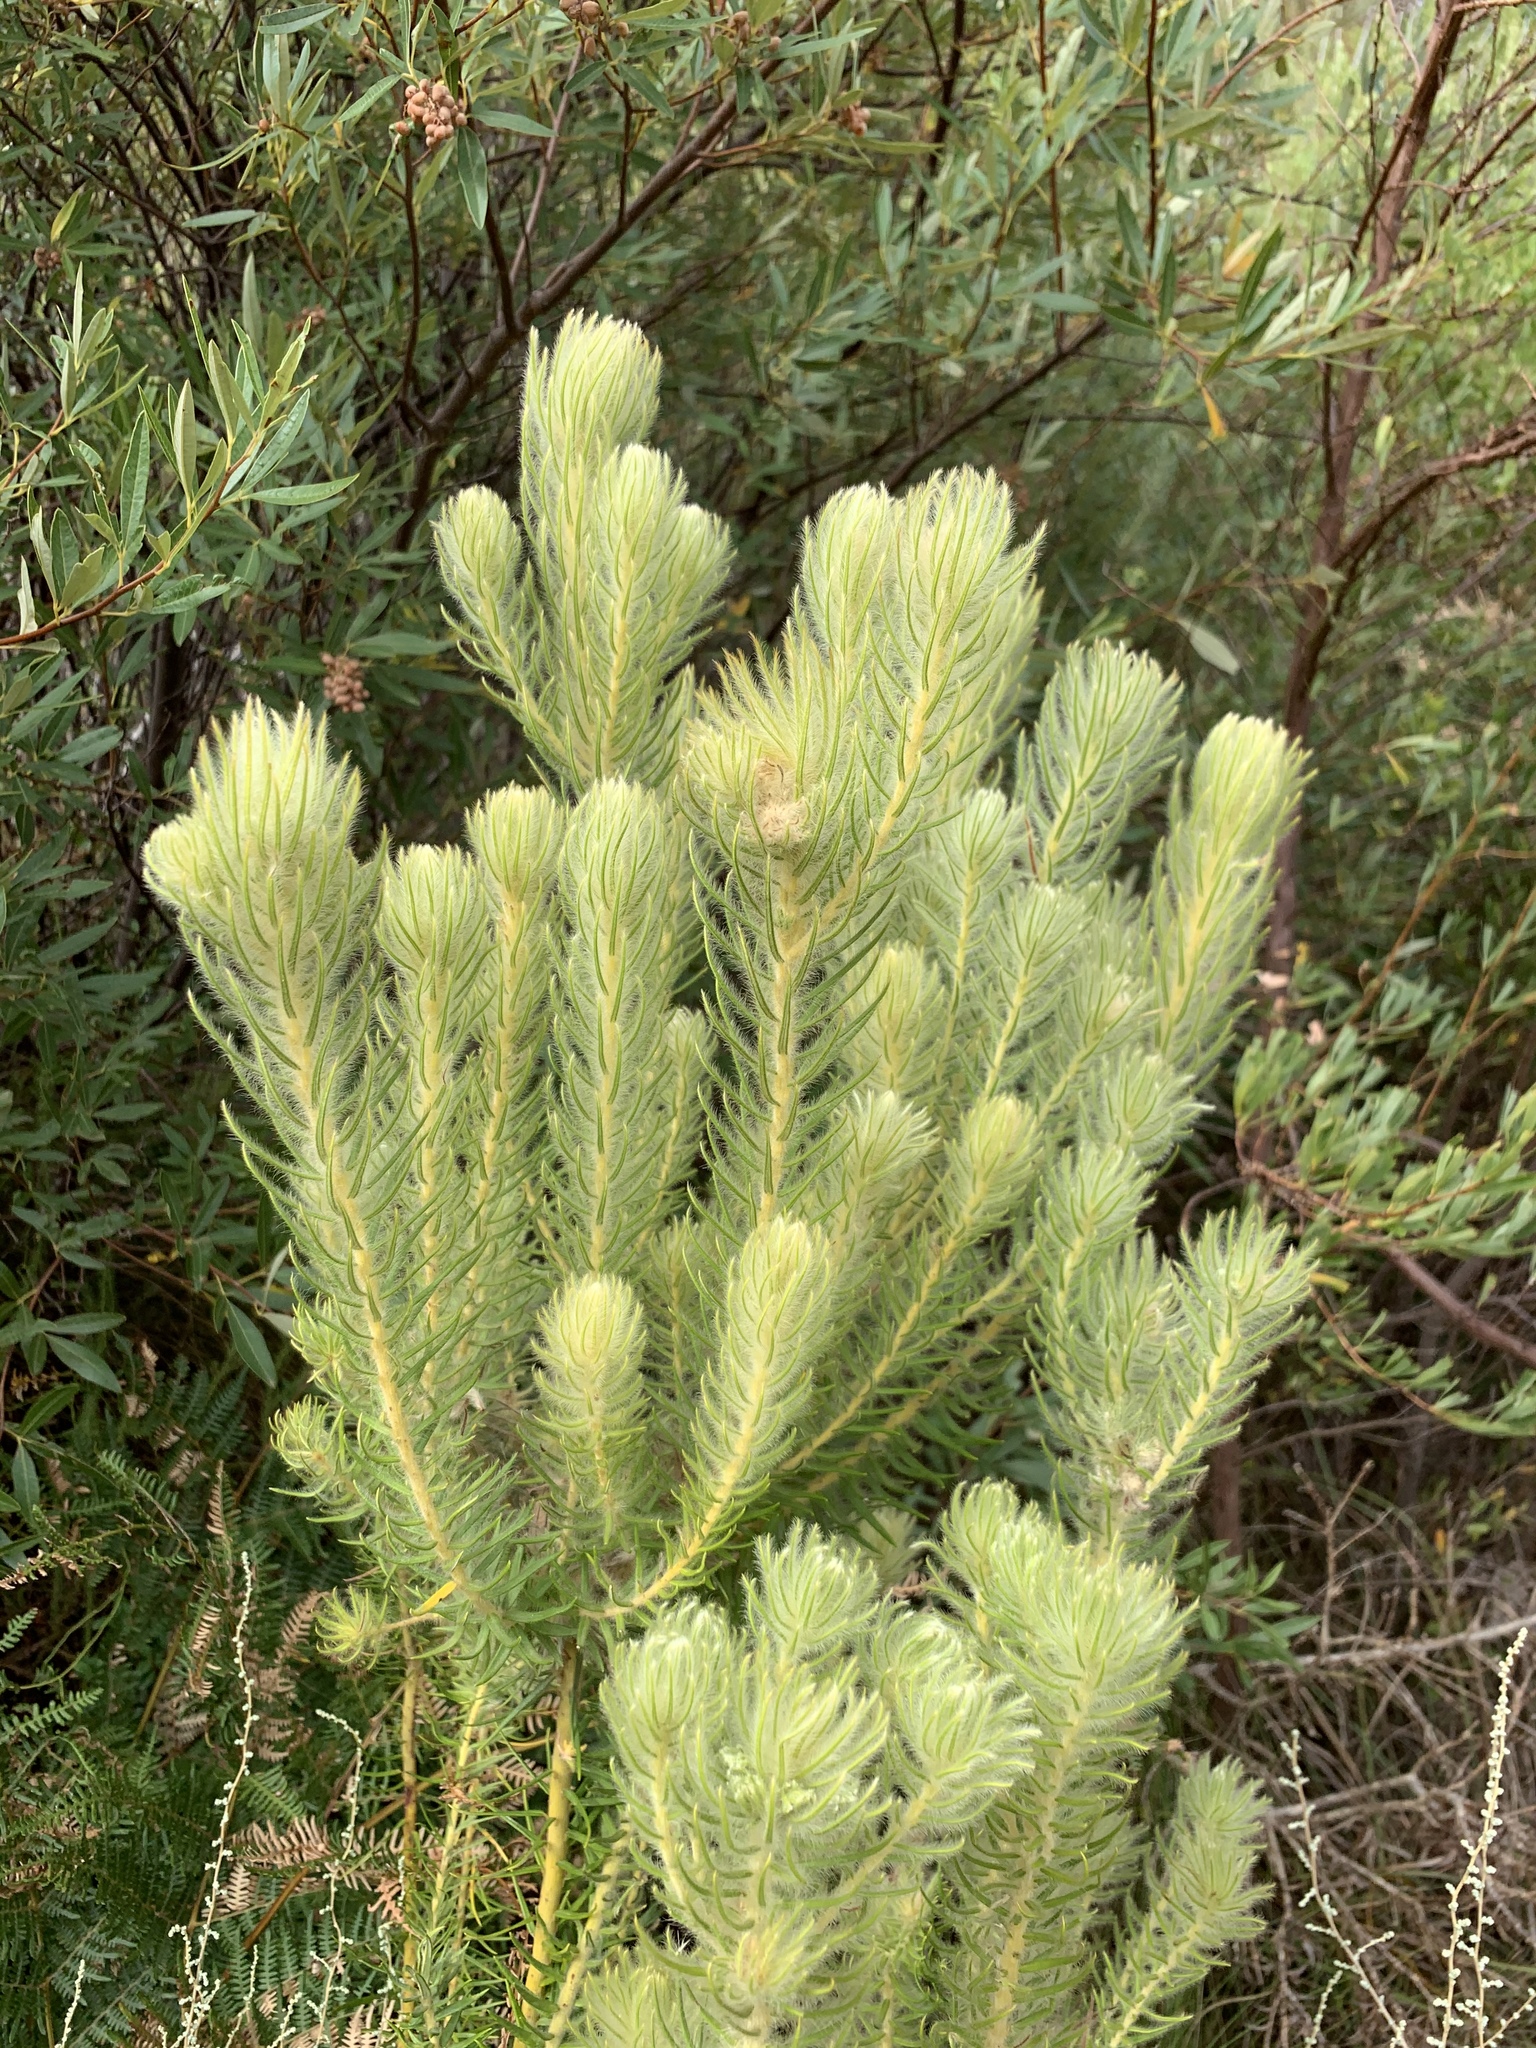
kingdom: Plantae
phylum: Tracheophyta
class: Magnoliopsida
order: Rosales
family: Rhamnaceae
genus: Phylica
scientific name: Phylica pubescens
